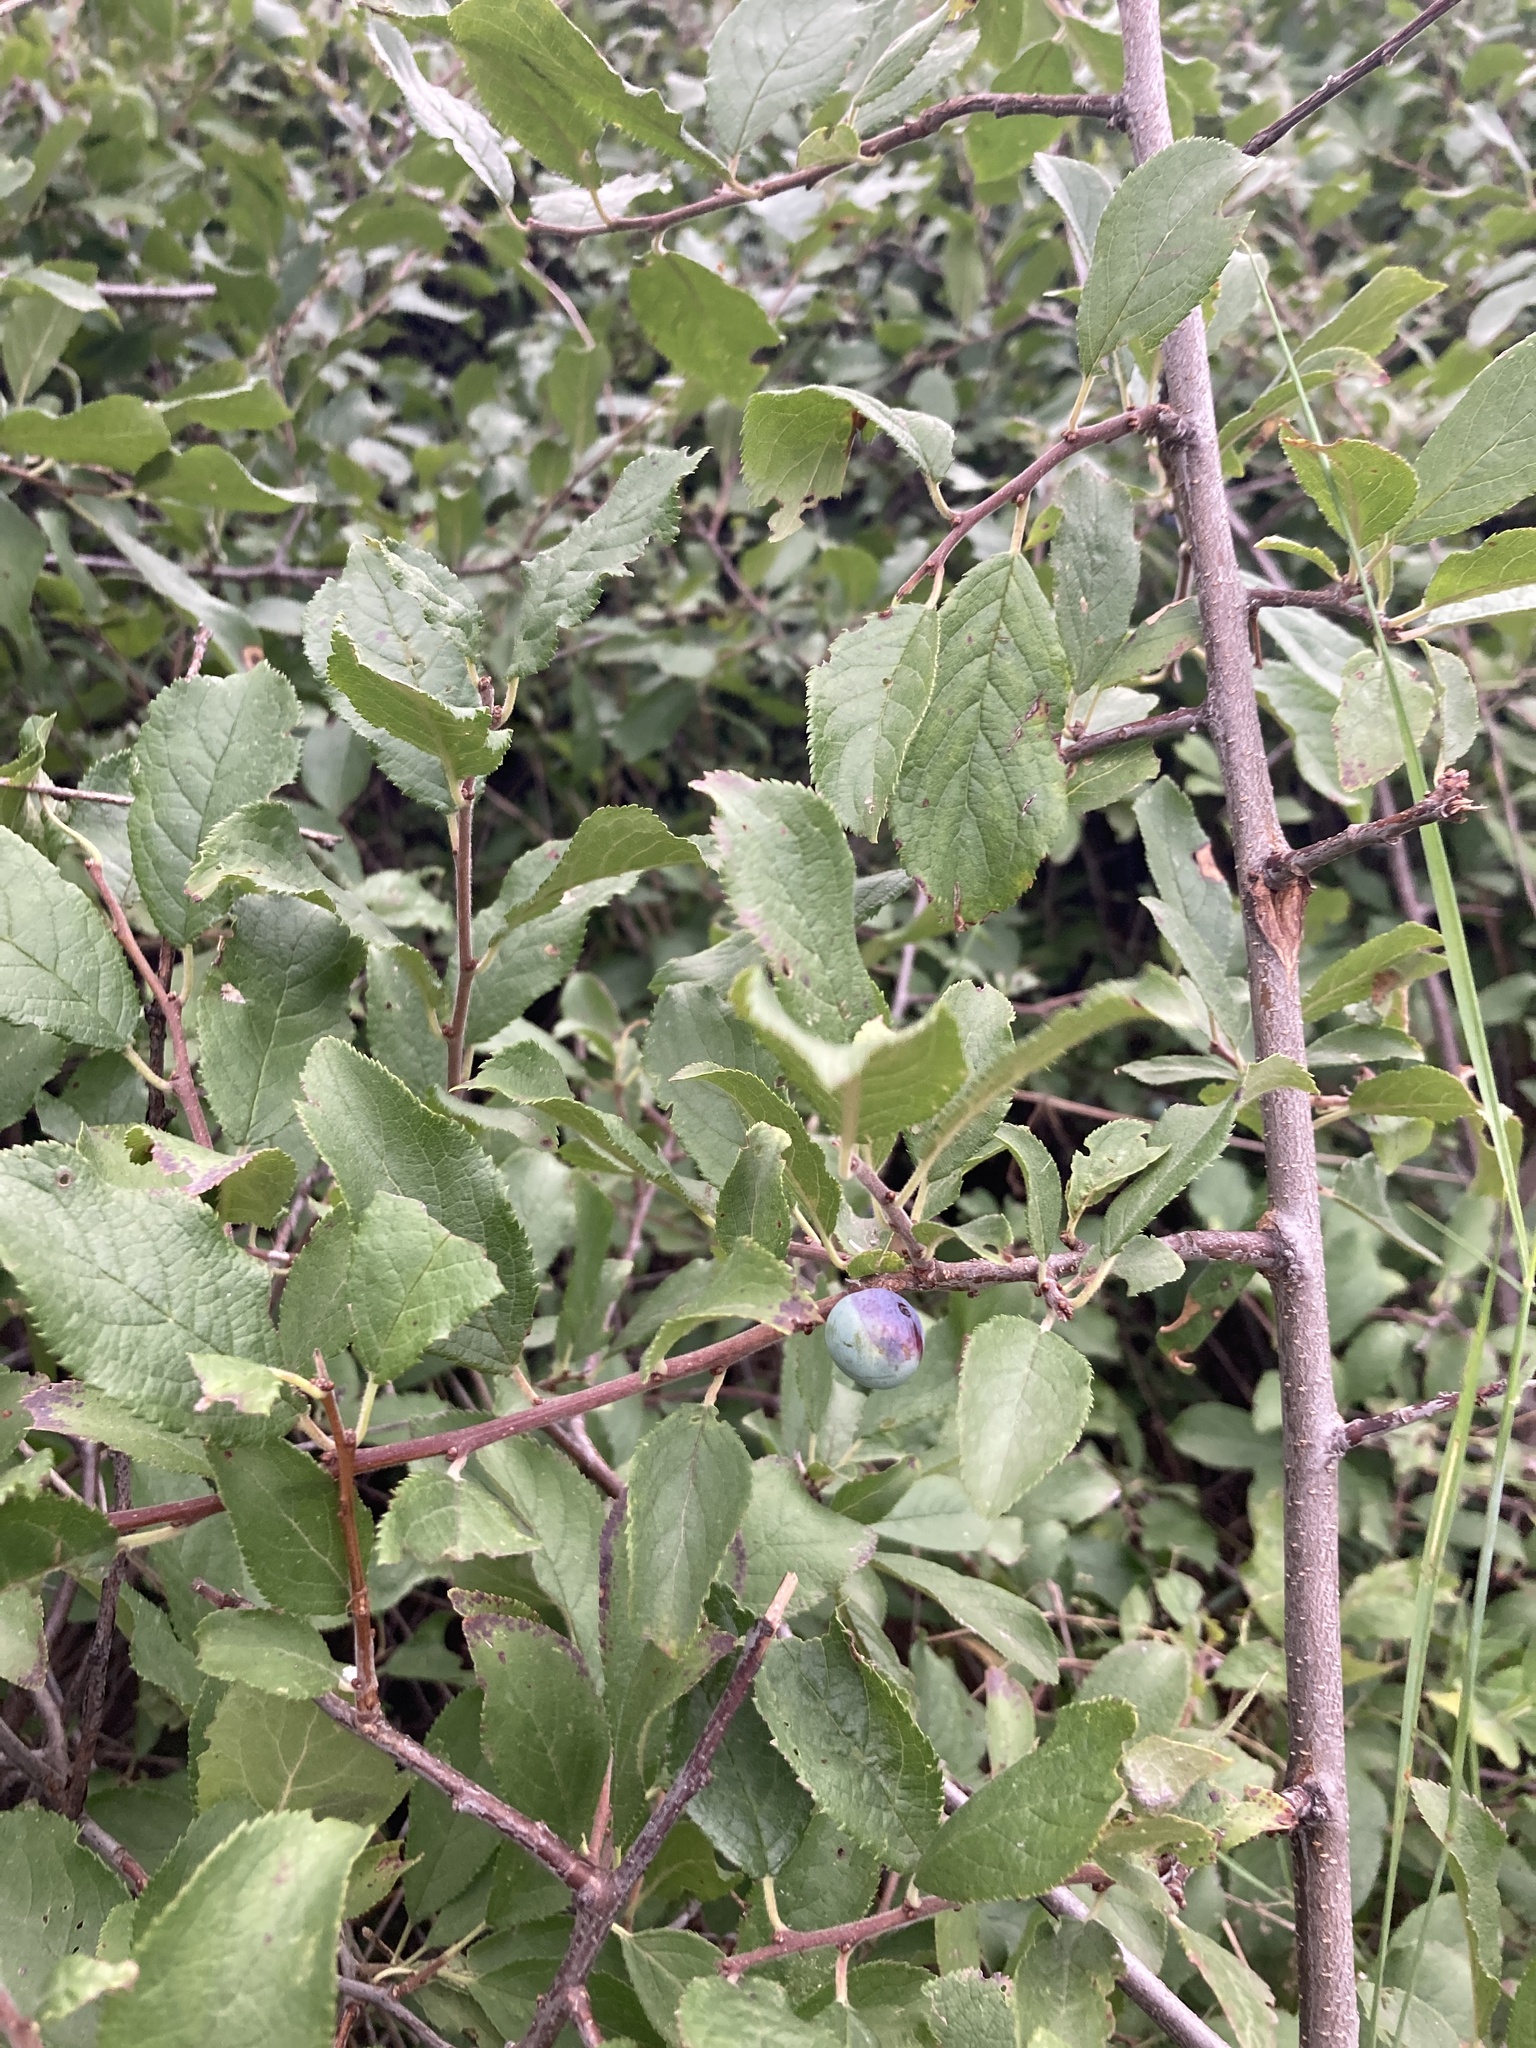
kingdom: Plantae
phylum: Tracheophyta
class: Magnoliopsida
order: Rosales
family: Rosaceae
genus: Prunus
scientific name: Prunus spinosa
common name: Blackthorn
